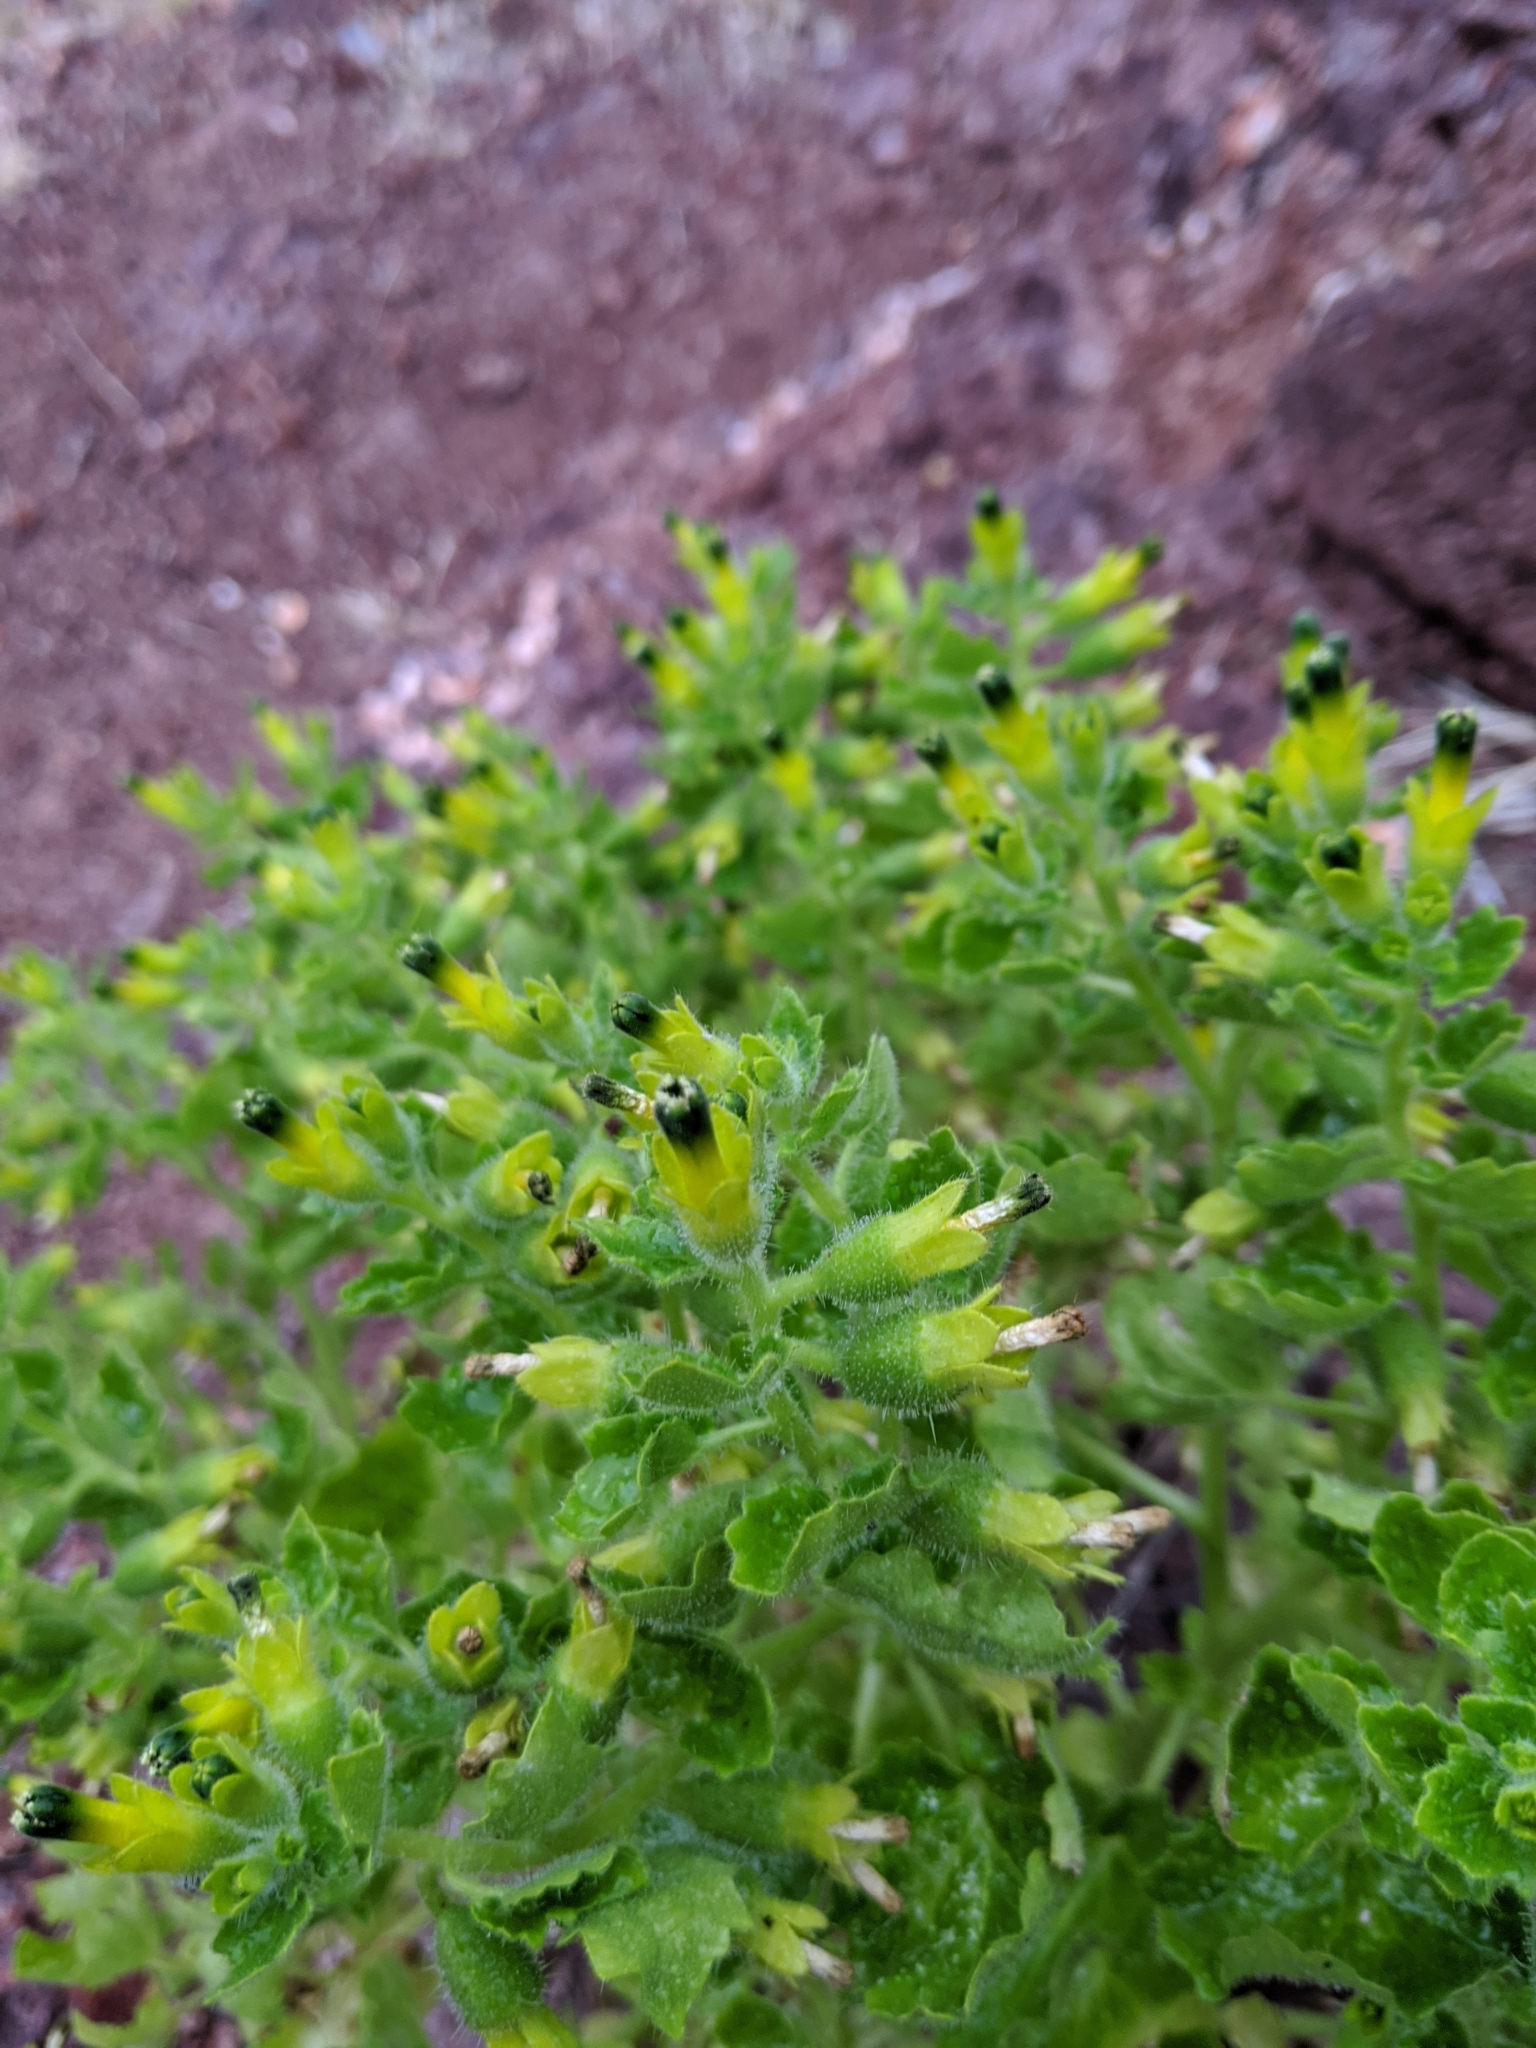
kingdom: Plantae
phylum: Tracheophyta
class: Magnoliopsida
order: Cornales
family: Loasaceae
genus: Eucnide
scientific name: Eucnide rupestris
